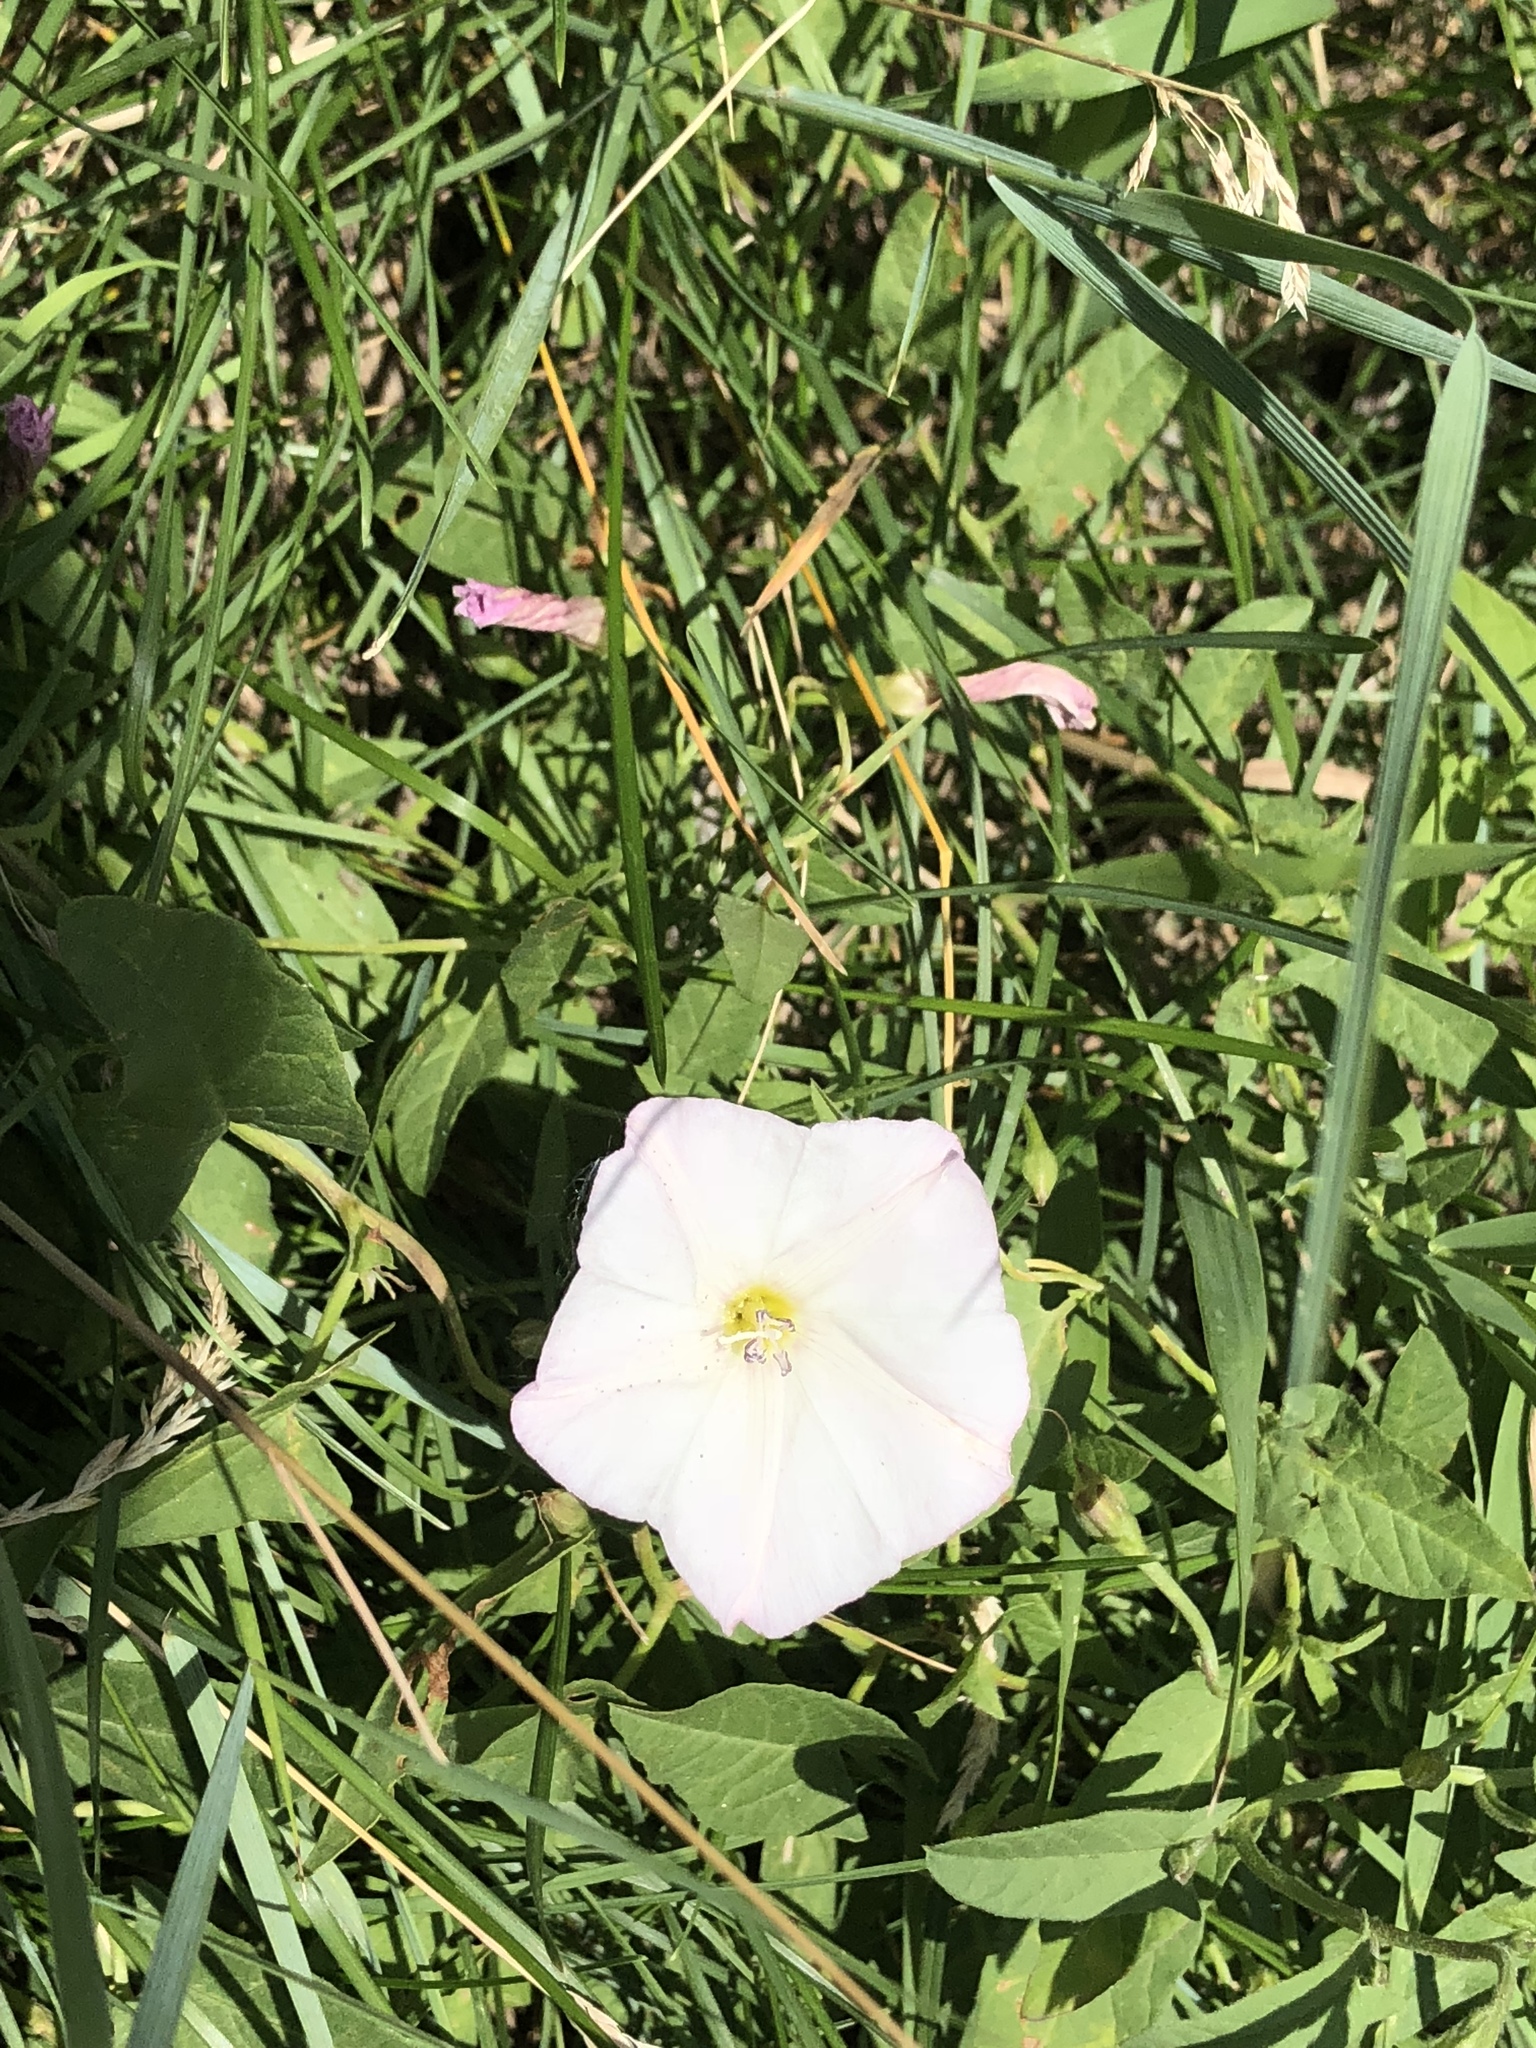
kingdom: Plantae
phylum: Tracheophyta
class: Magnoliopsida
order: Solanales
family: Convolvulaceae
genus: Convolvulus
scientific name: Convolvulus arvensis
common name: Field bindweed
